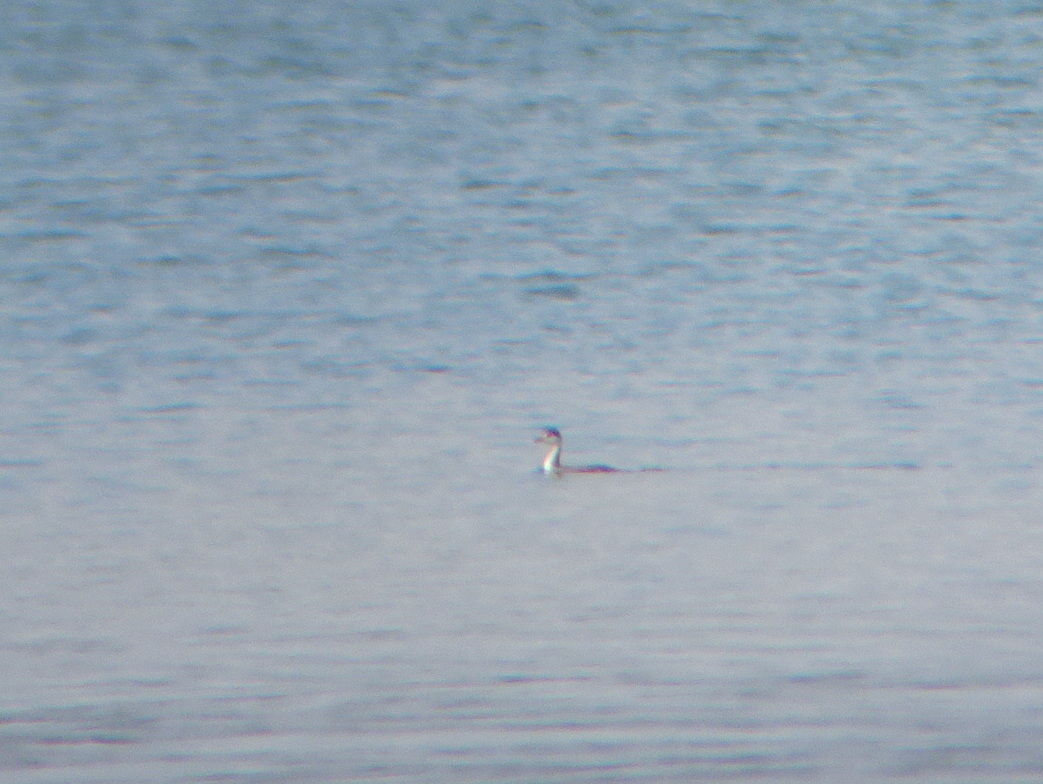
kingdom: Animalia
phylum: Chordata
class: Aves
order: Podicipediformes
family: Podicipedidae
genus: Podiceps
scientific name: Podiceps auritus
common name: Horned grebe
